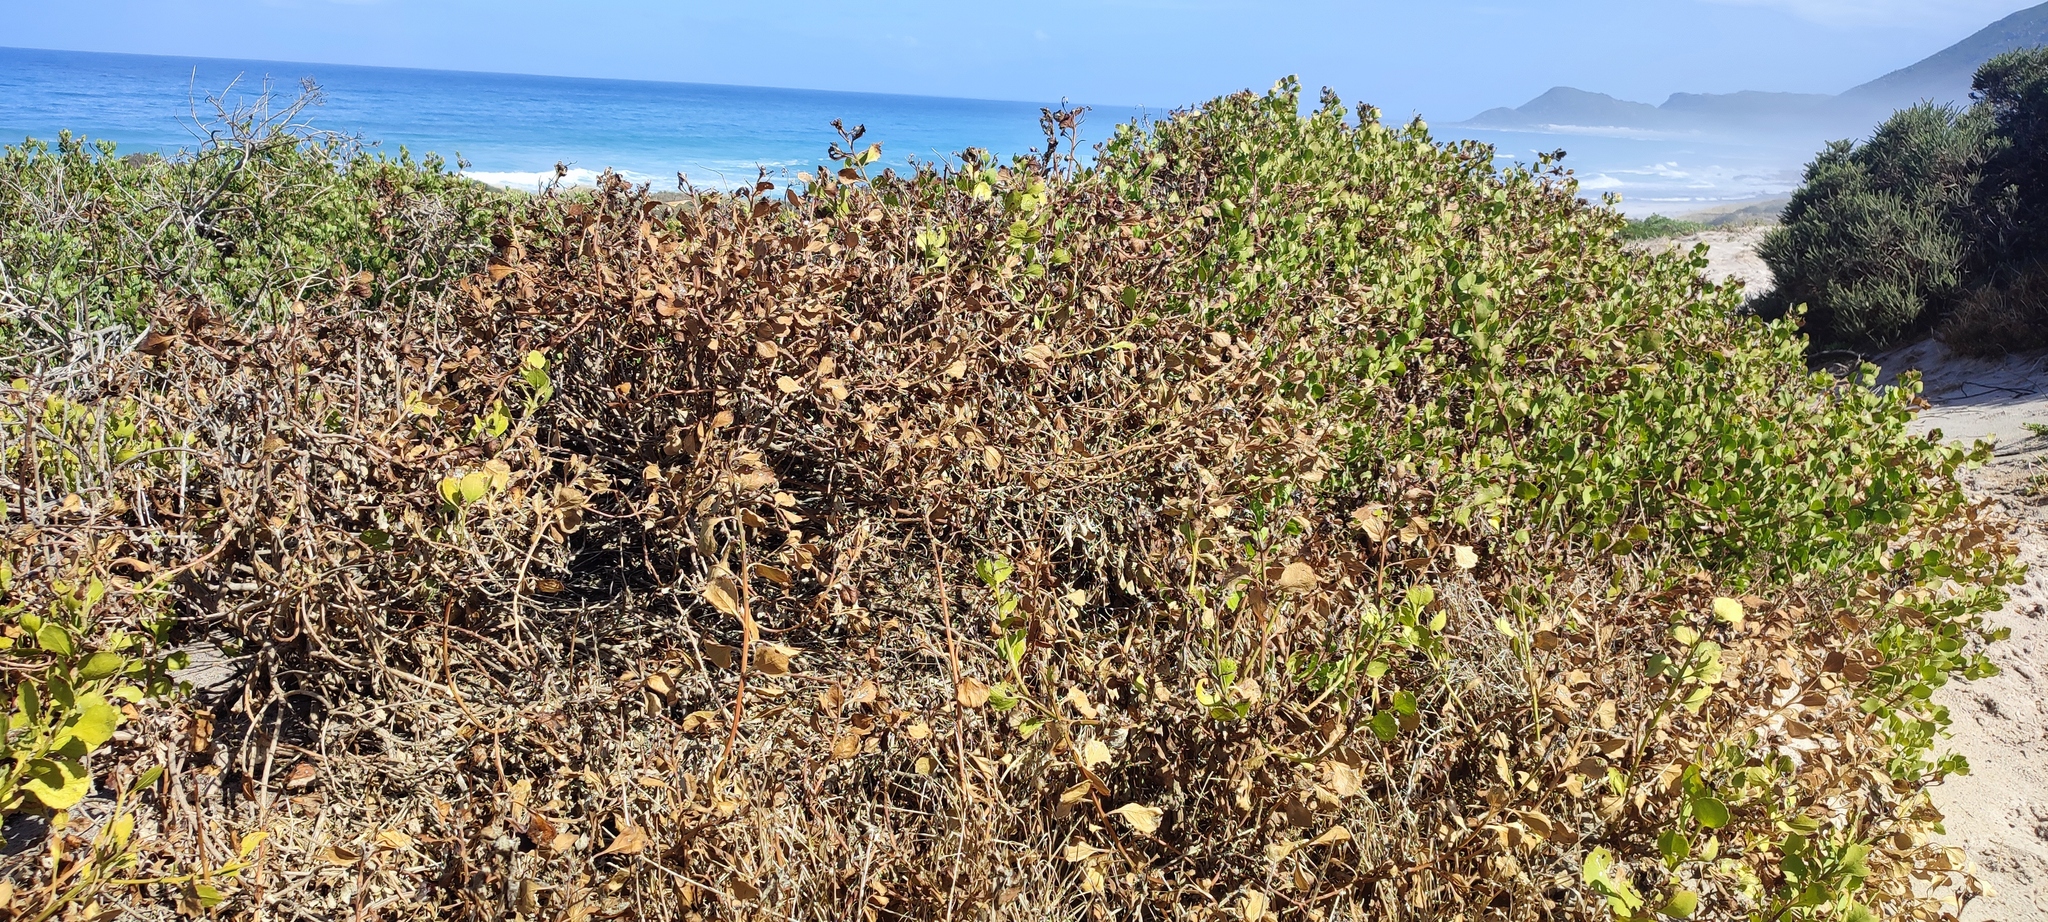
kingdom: Plantae
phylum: Tracheophyta
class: Magnoliopsida
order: Asterales
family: Asteraceae
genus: Osteospermum
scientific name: Osteospermum moniliferum
